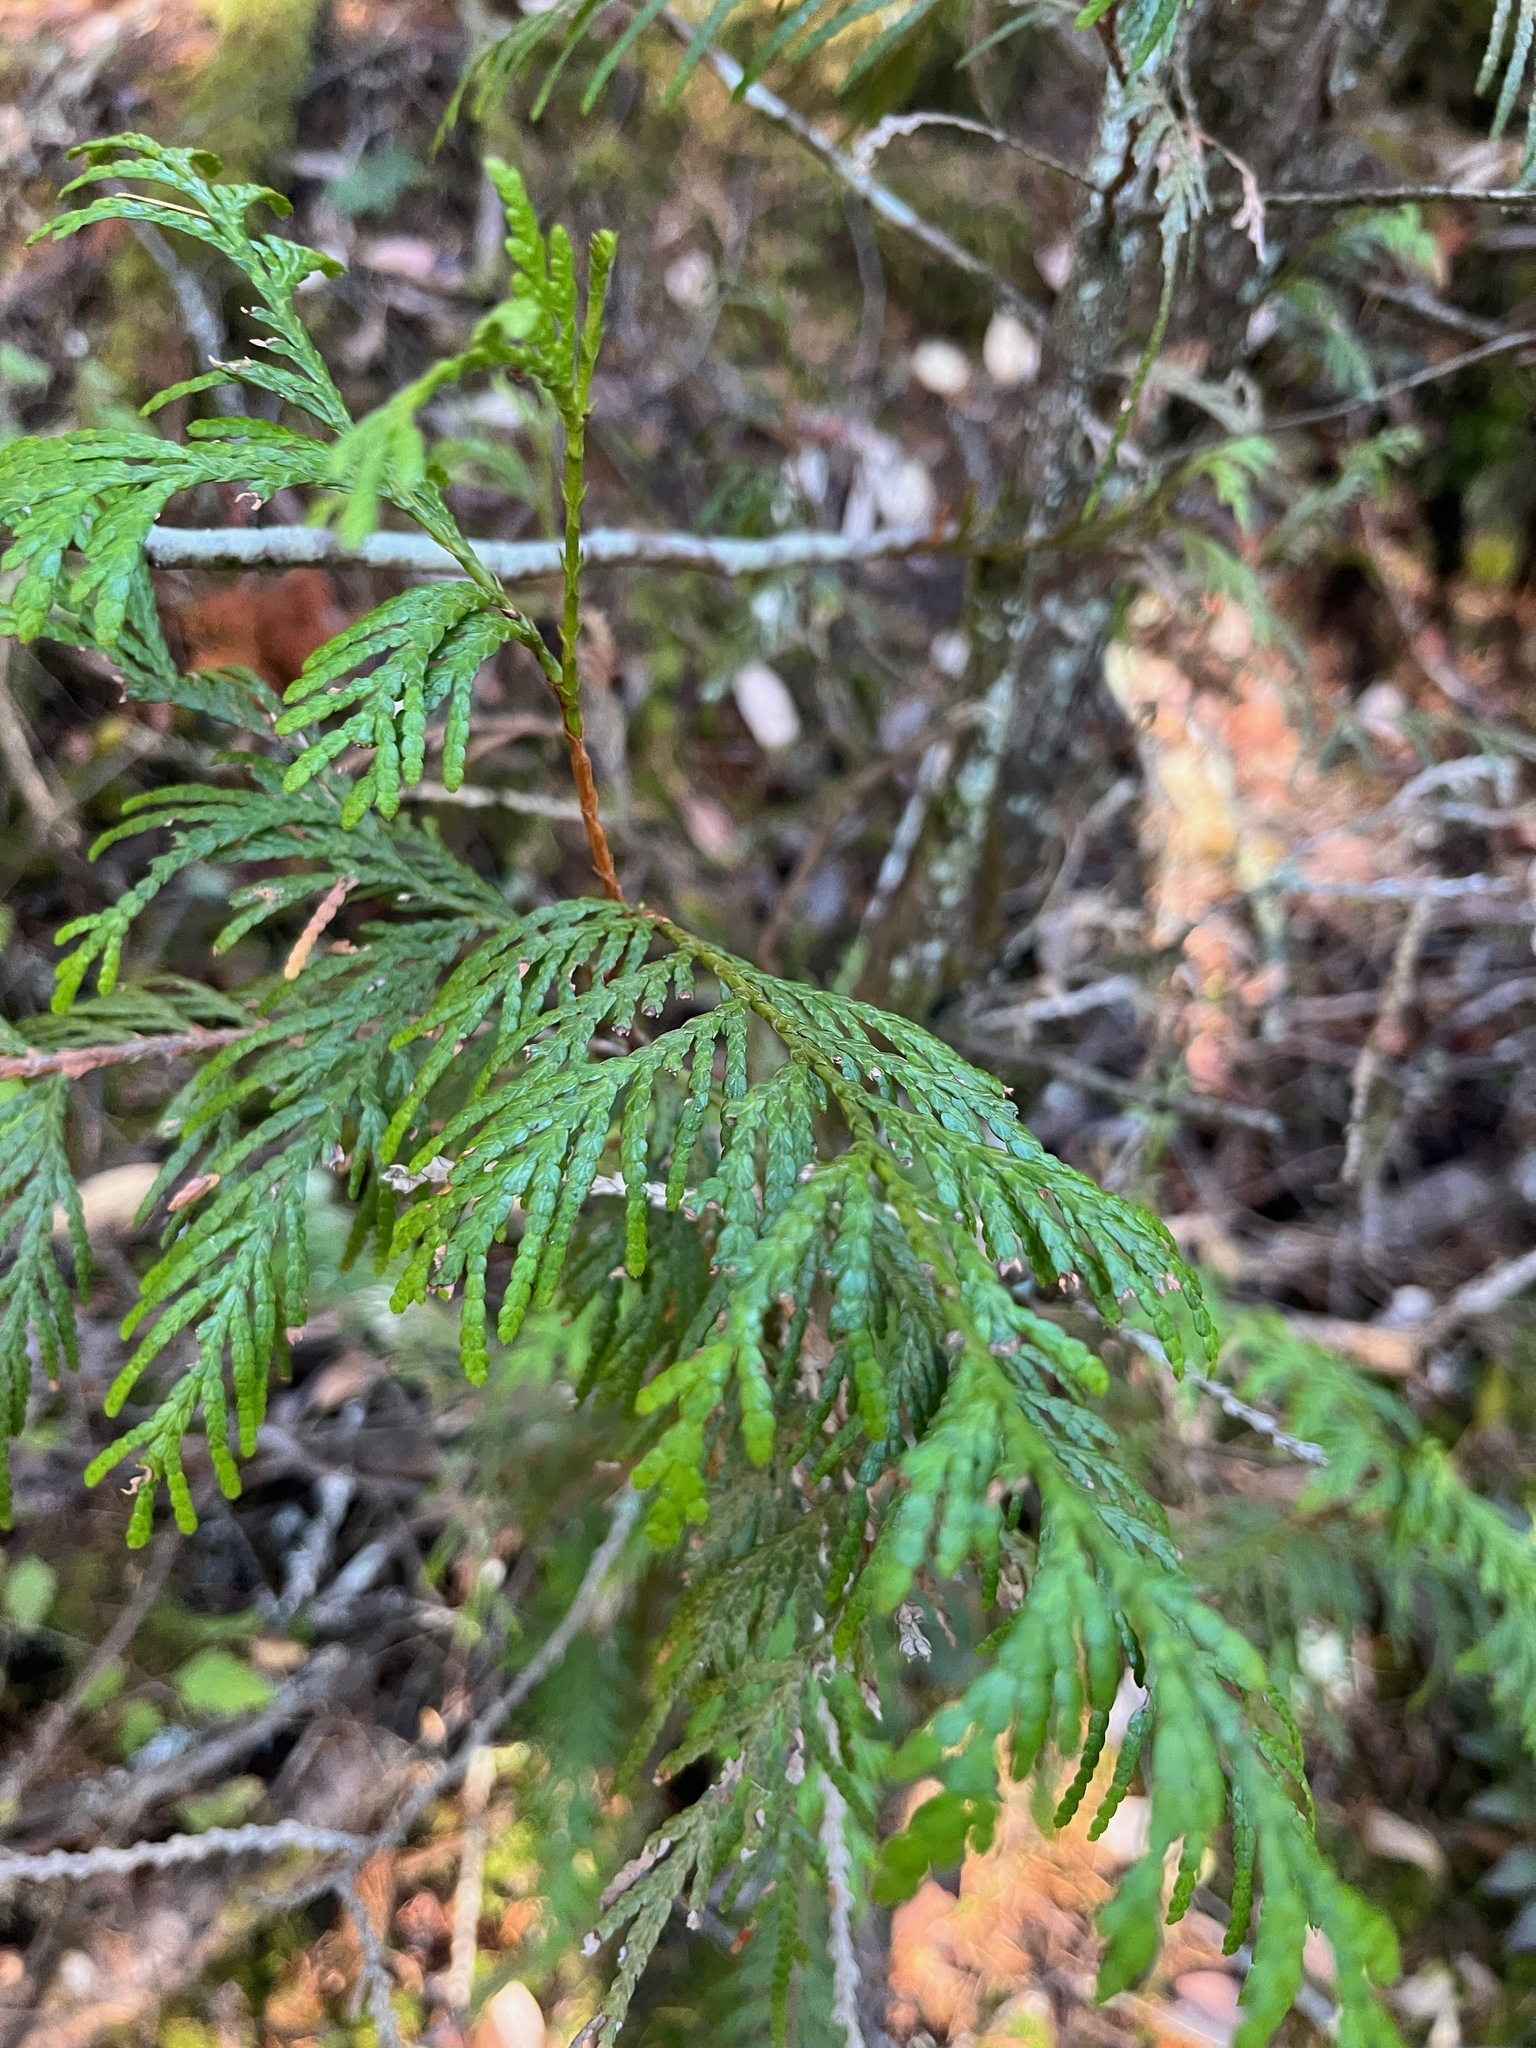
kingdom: Plantae
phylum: Tracheophyta
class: Pinopsida
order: Pinales
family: Cupressaceae
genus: Thuja
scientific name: Thuja plicata
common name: Western red-cedar
